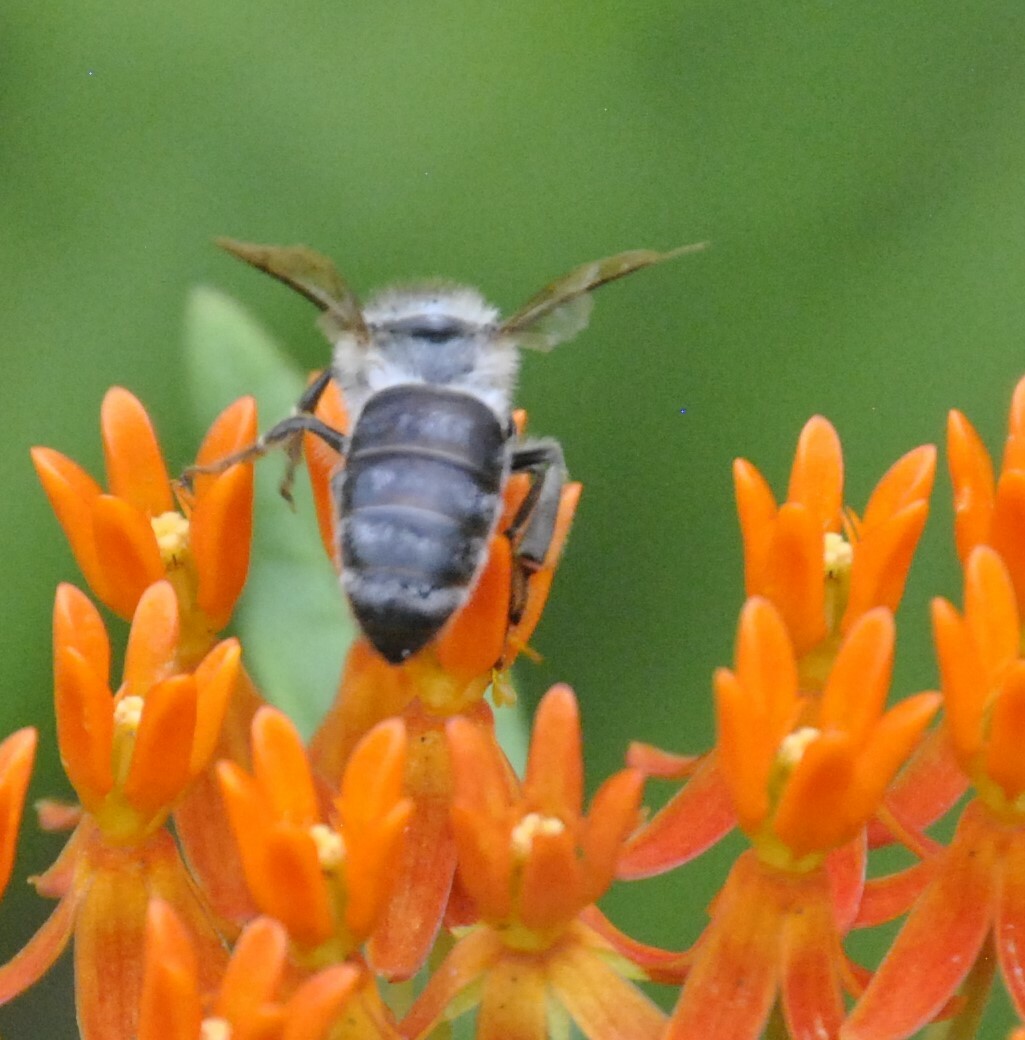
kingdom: Animalia
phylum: Arthropoda
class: Insecta
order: Hymenoptera
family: Apidae
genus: Apis
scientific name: Apis mellifera
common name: Honey bee
